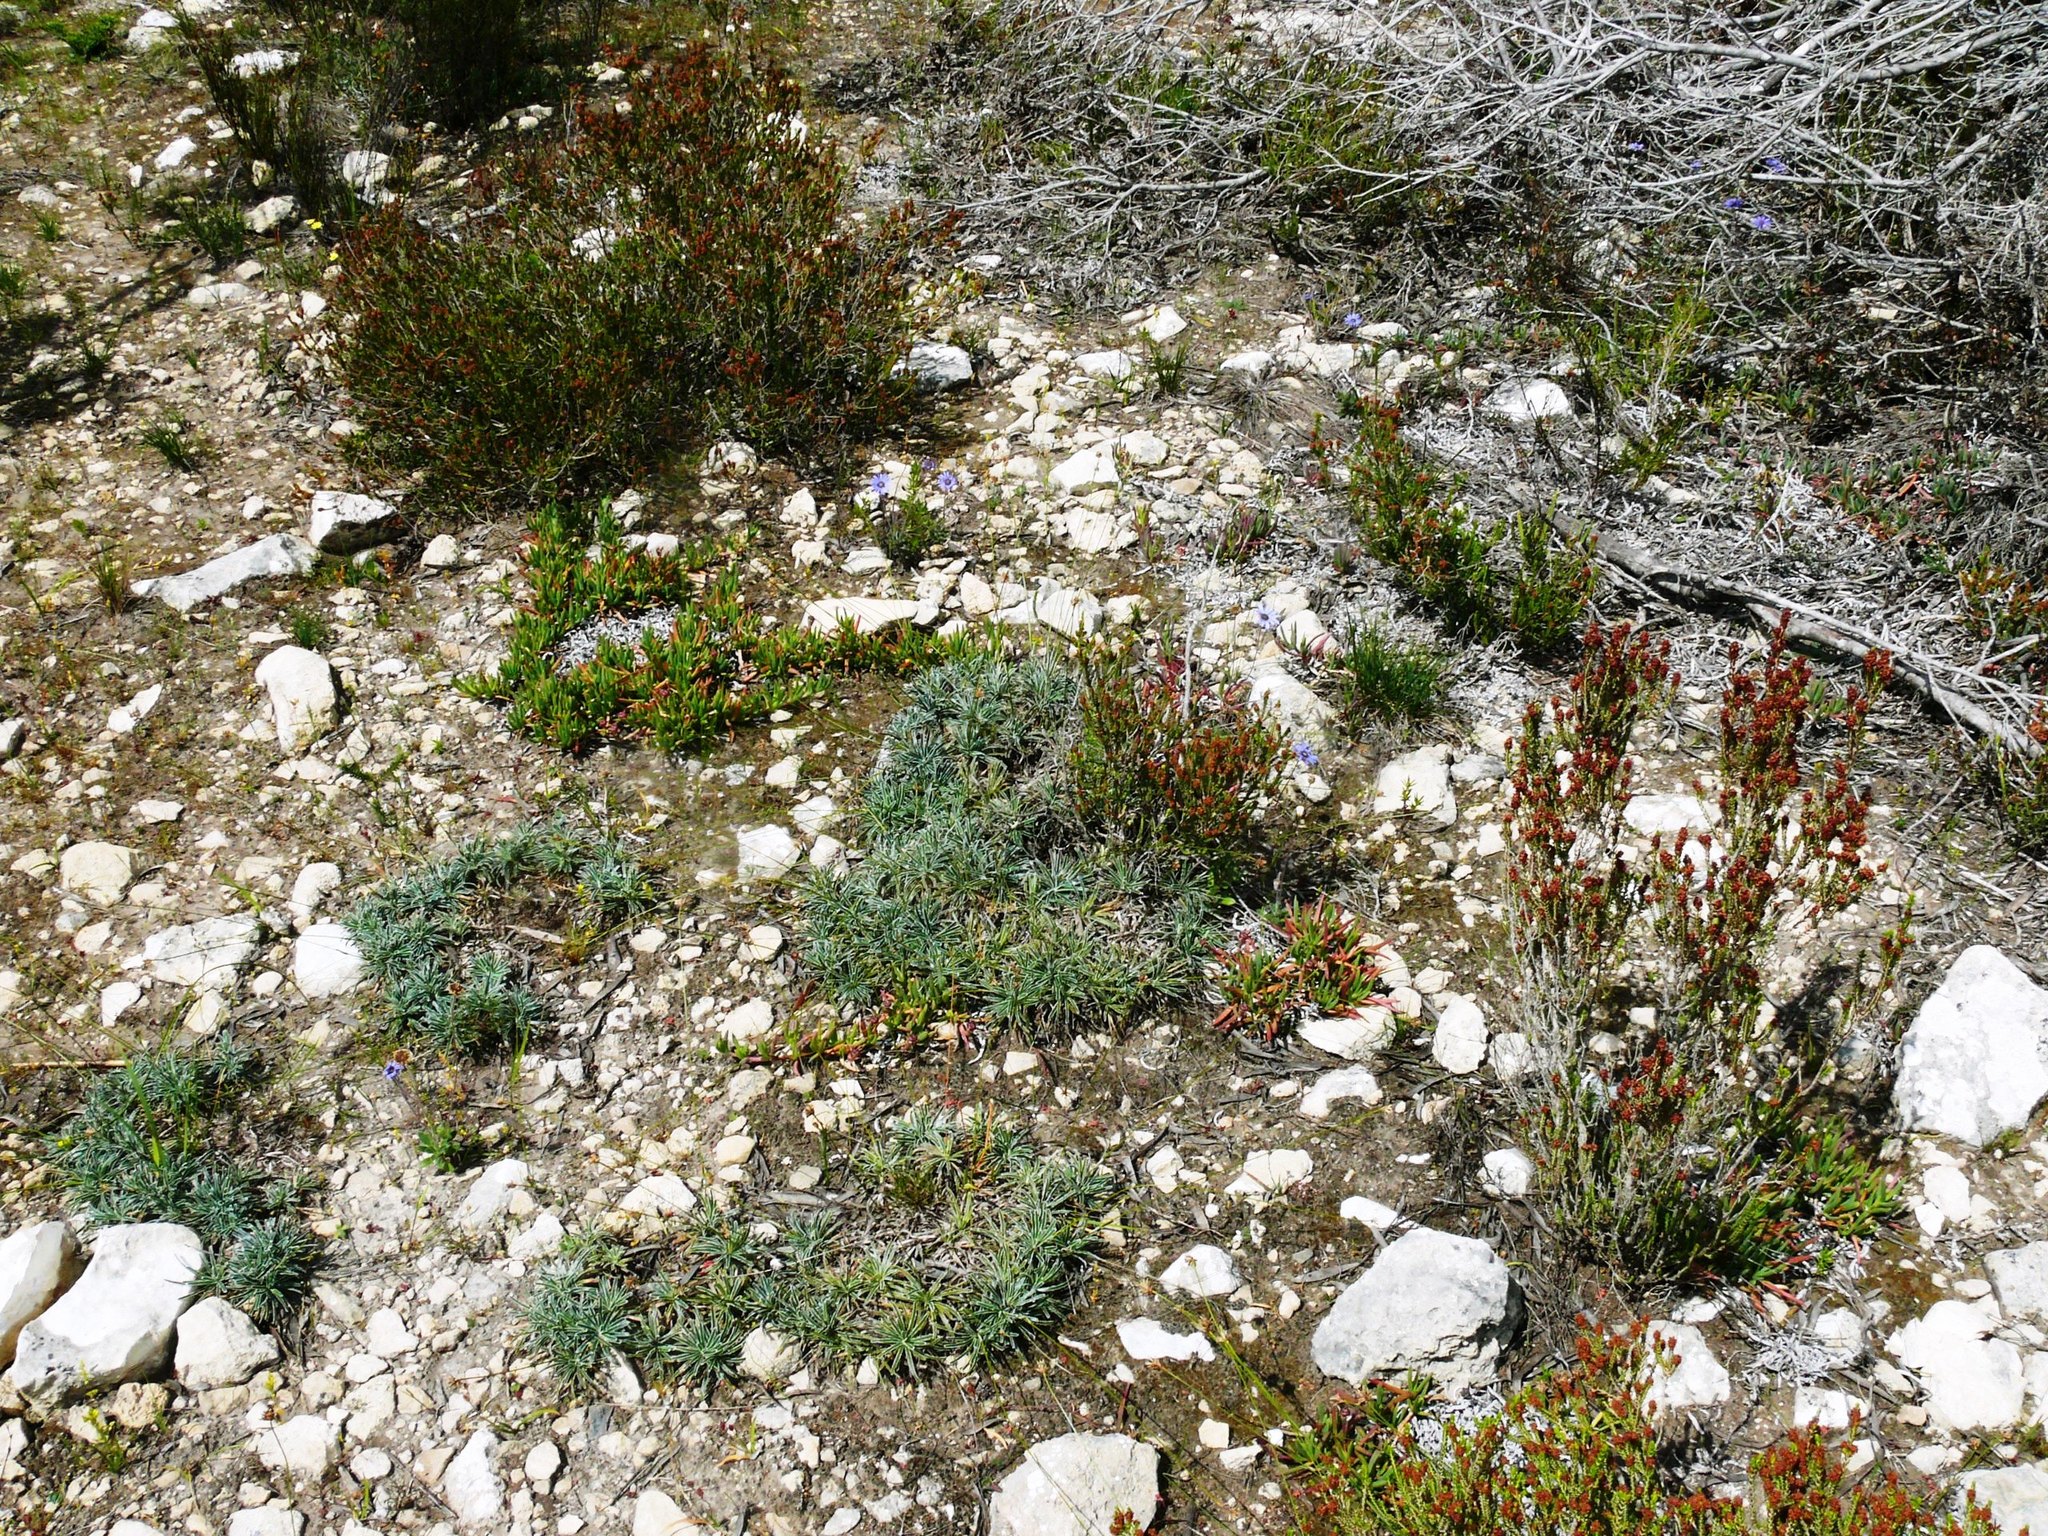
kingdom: Plantae
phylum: Tracheophyta
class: Liliopsida
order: Poales
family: Cyperaceae
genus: Ficinia
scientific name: Ficinia truncata
